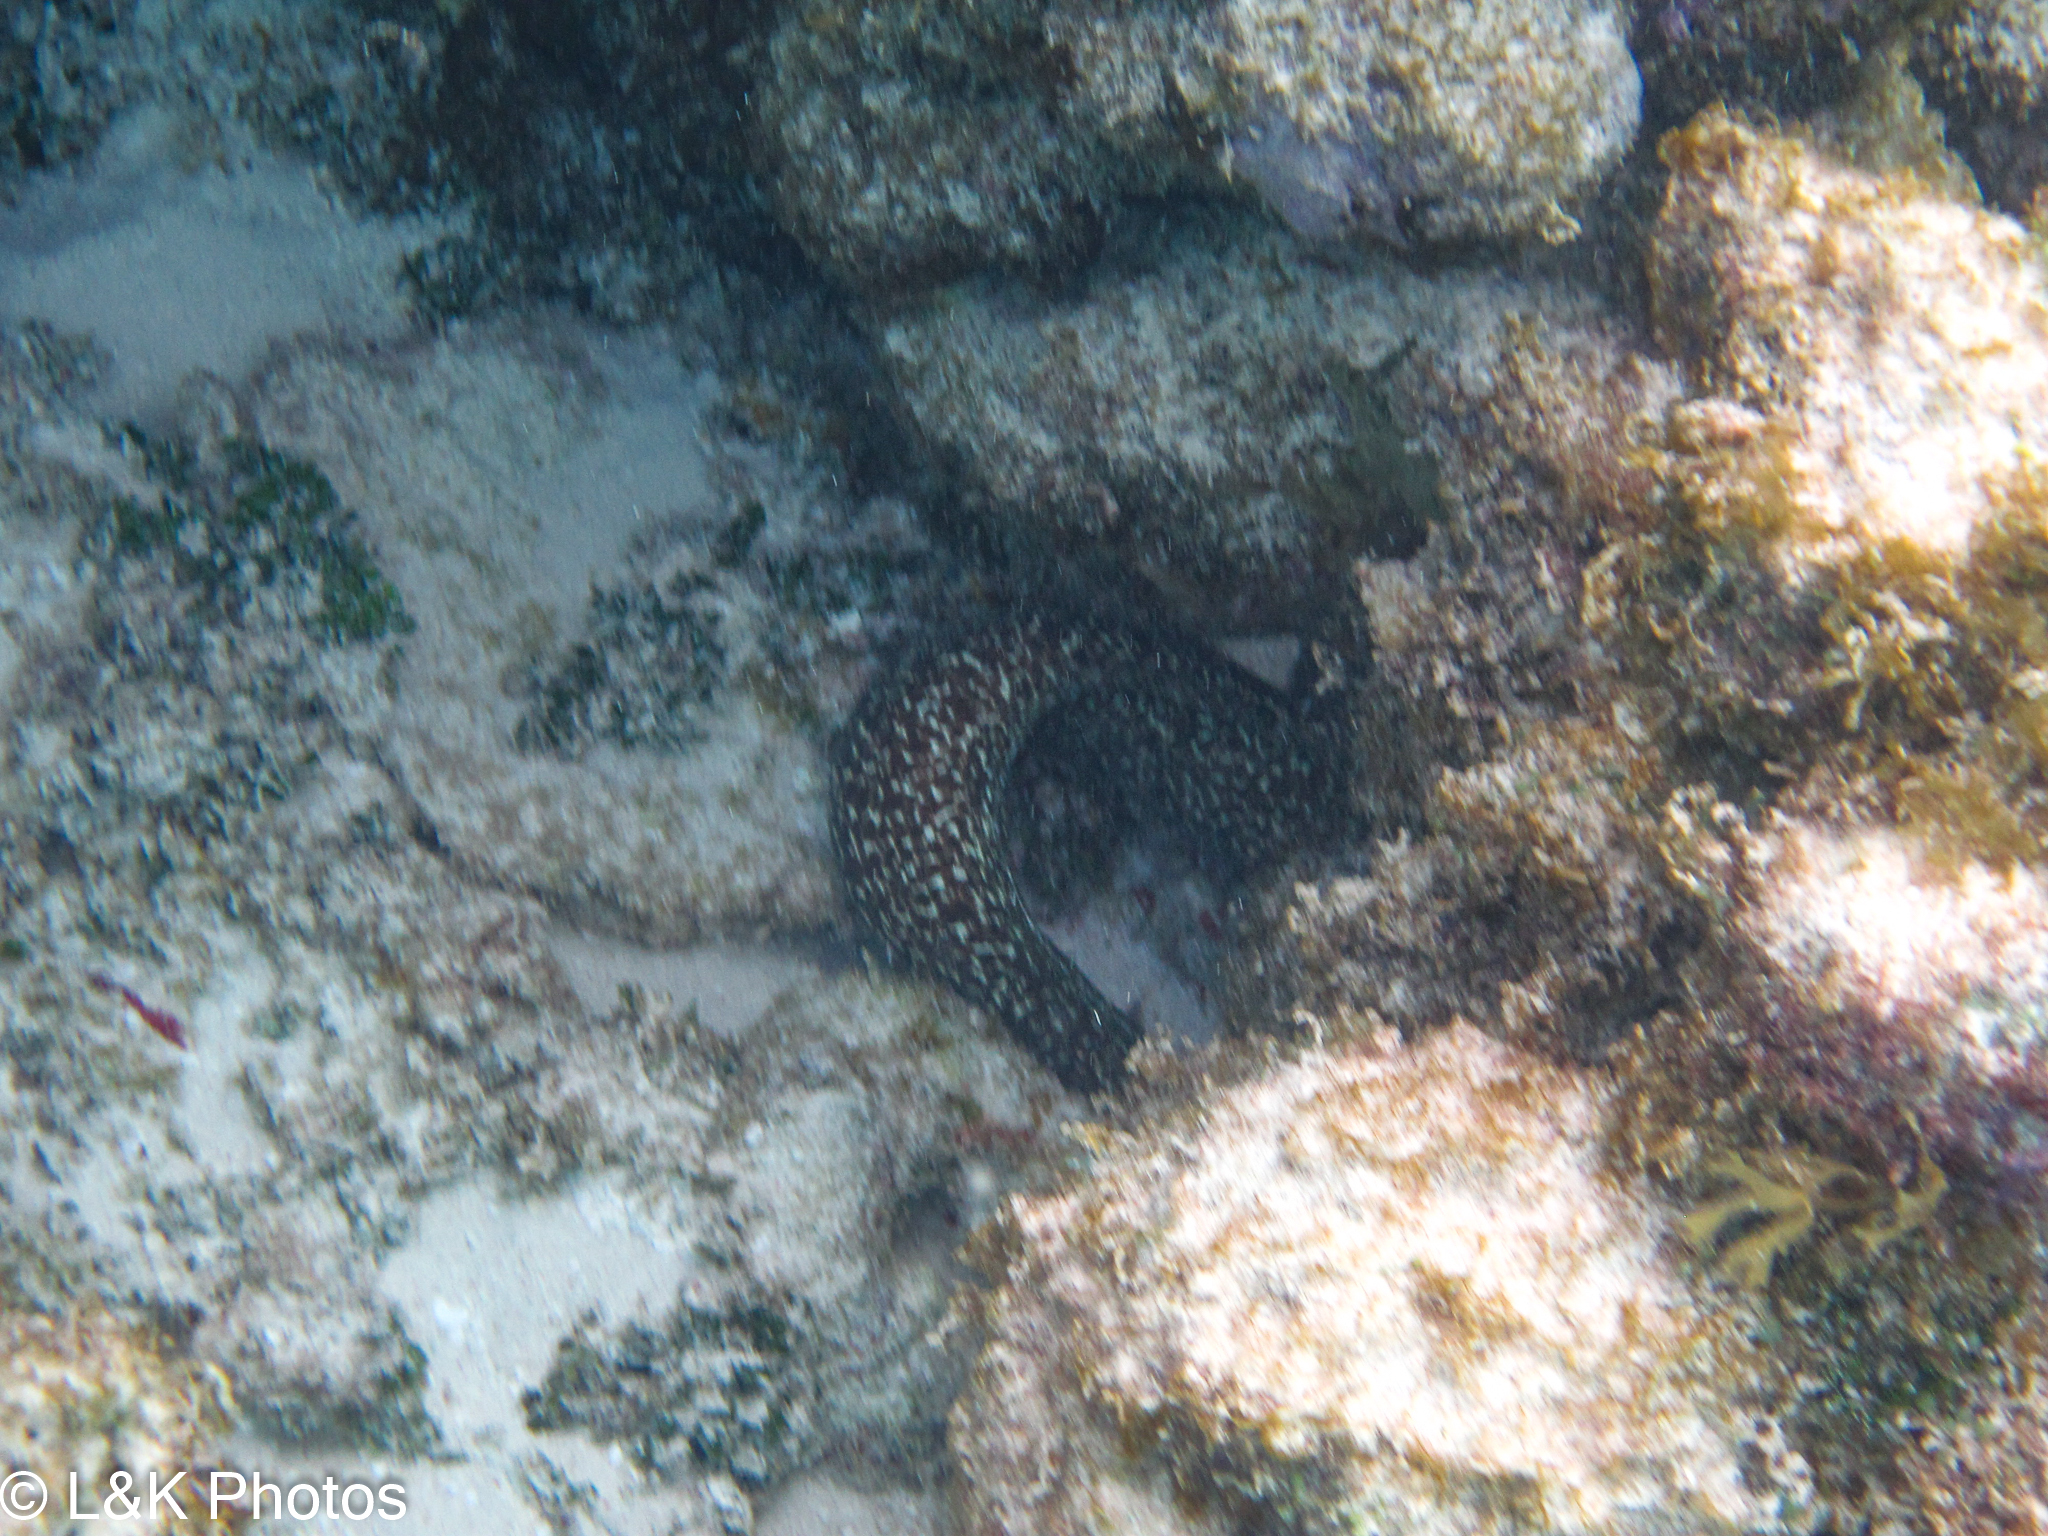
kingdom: Animalia
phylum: Chordata
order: Anguilliformes
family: Muraenidae
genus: Gymnothorax
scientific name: Gymnothorax moringa
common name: Spotted moray
